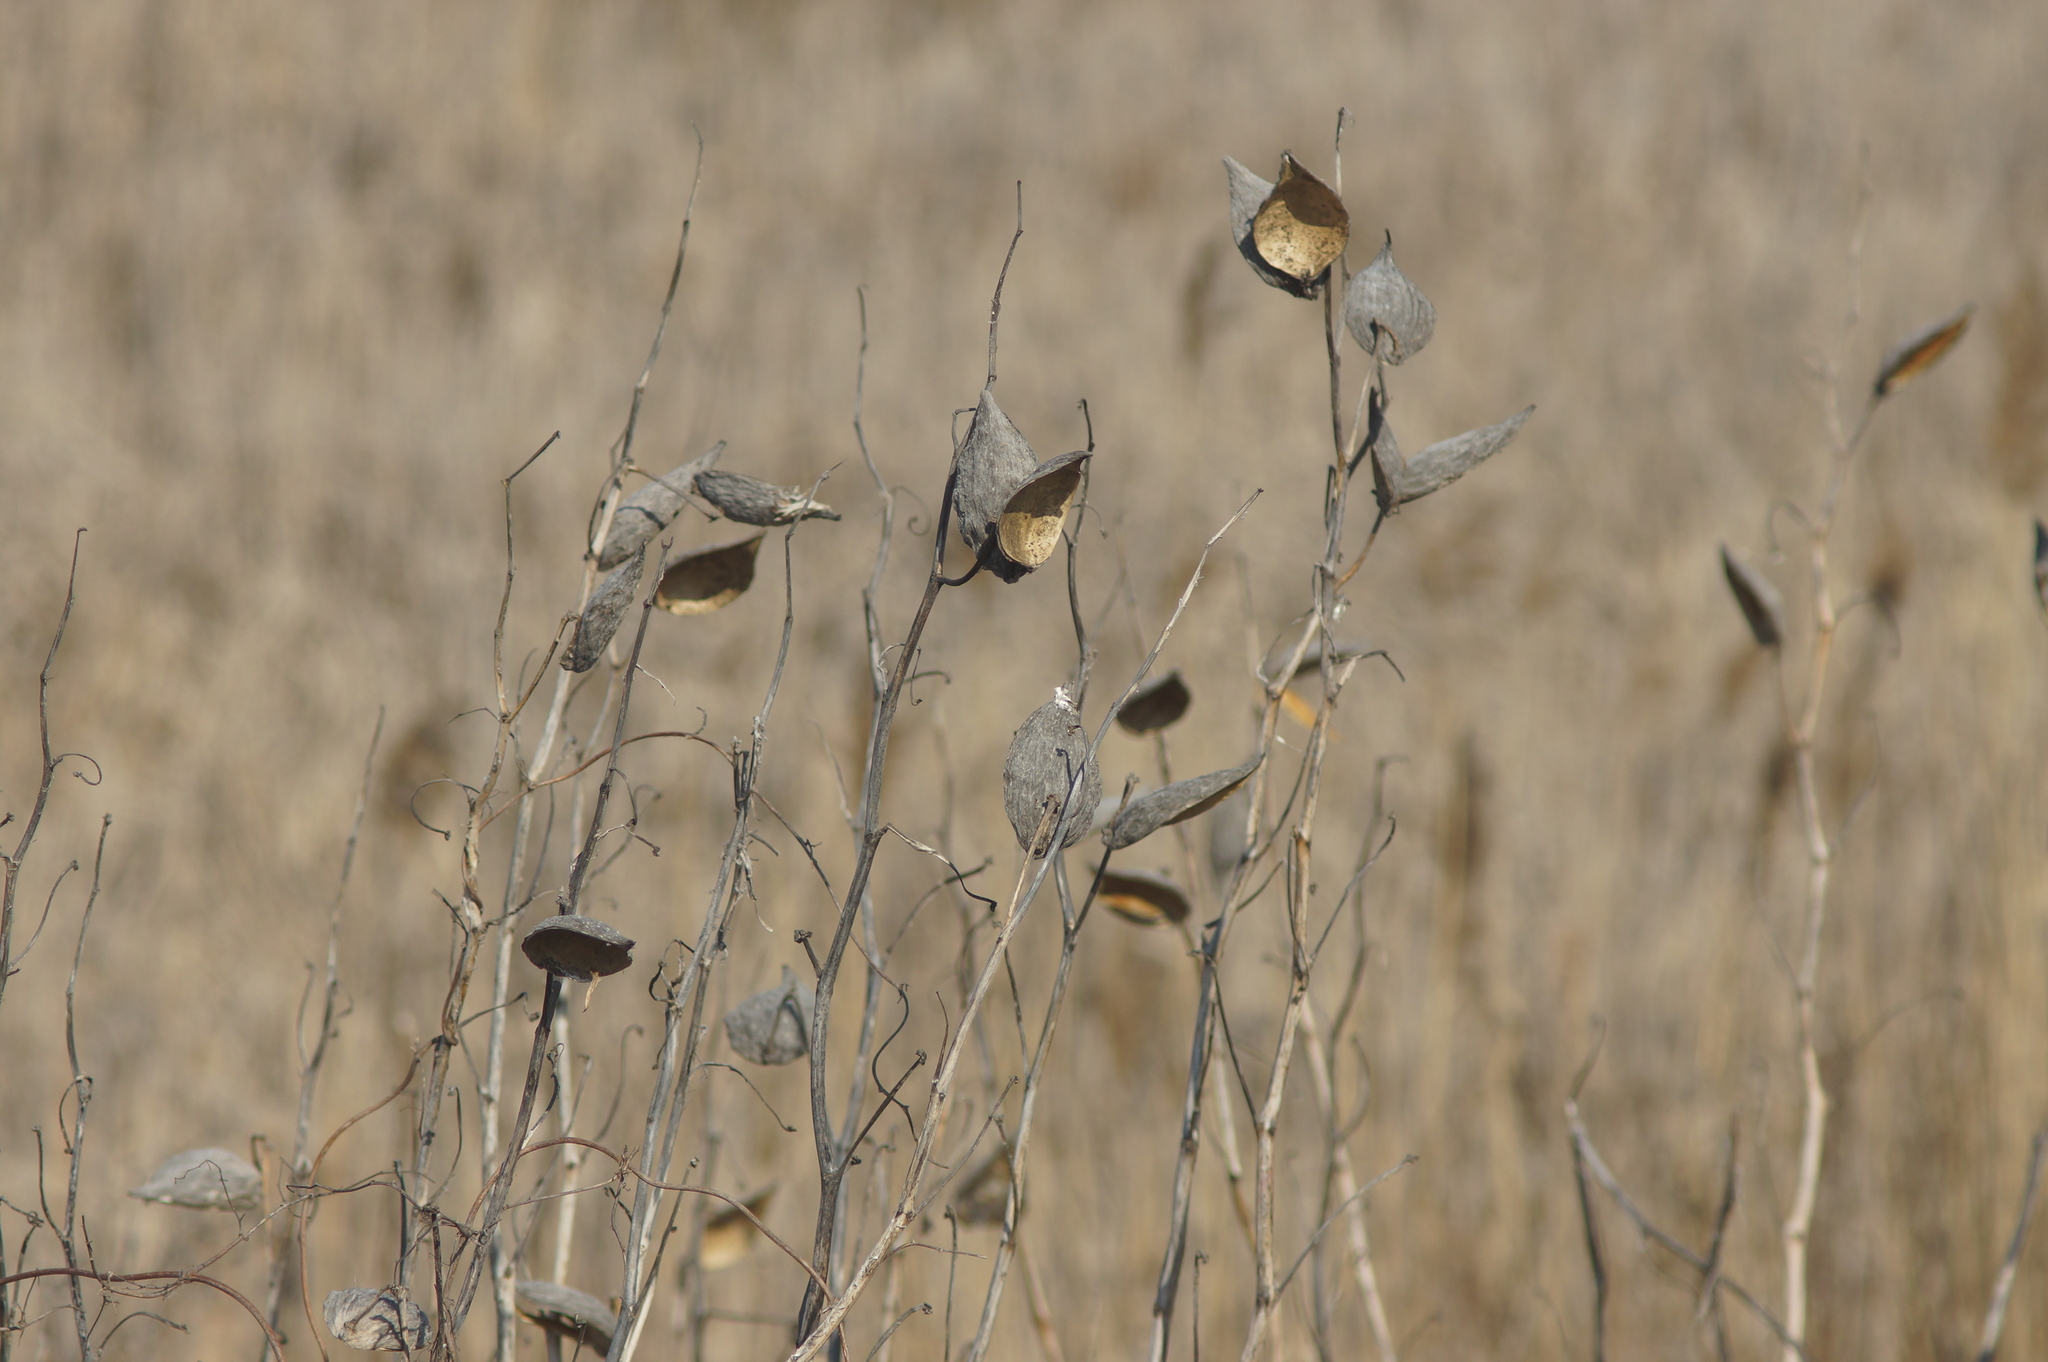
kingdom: Plantae
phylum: Tracheophyta
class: Magnoliopsida
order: Gentianales
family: Apocynaceae
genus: Asclepias
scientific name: Asclepias syriaca
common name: Common milkweed
